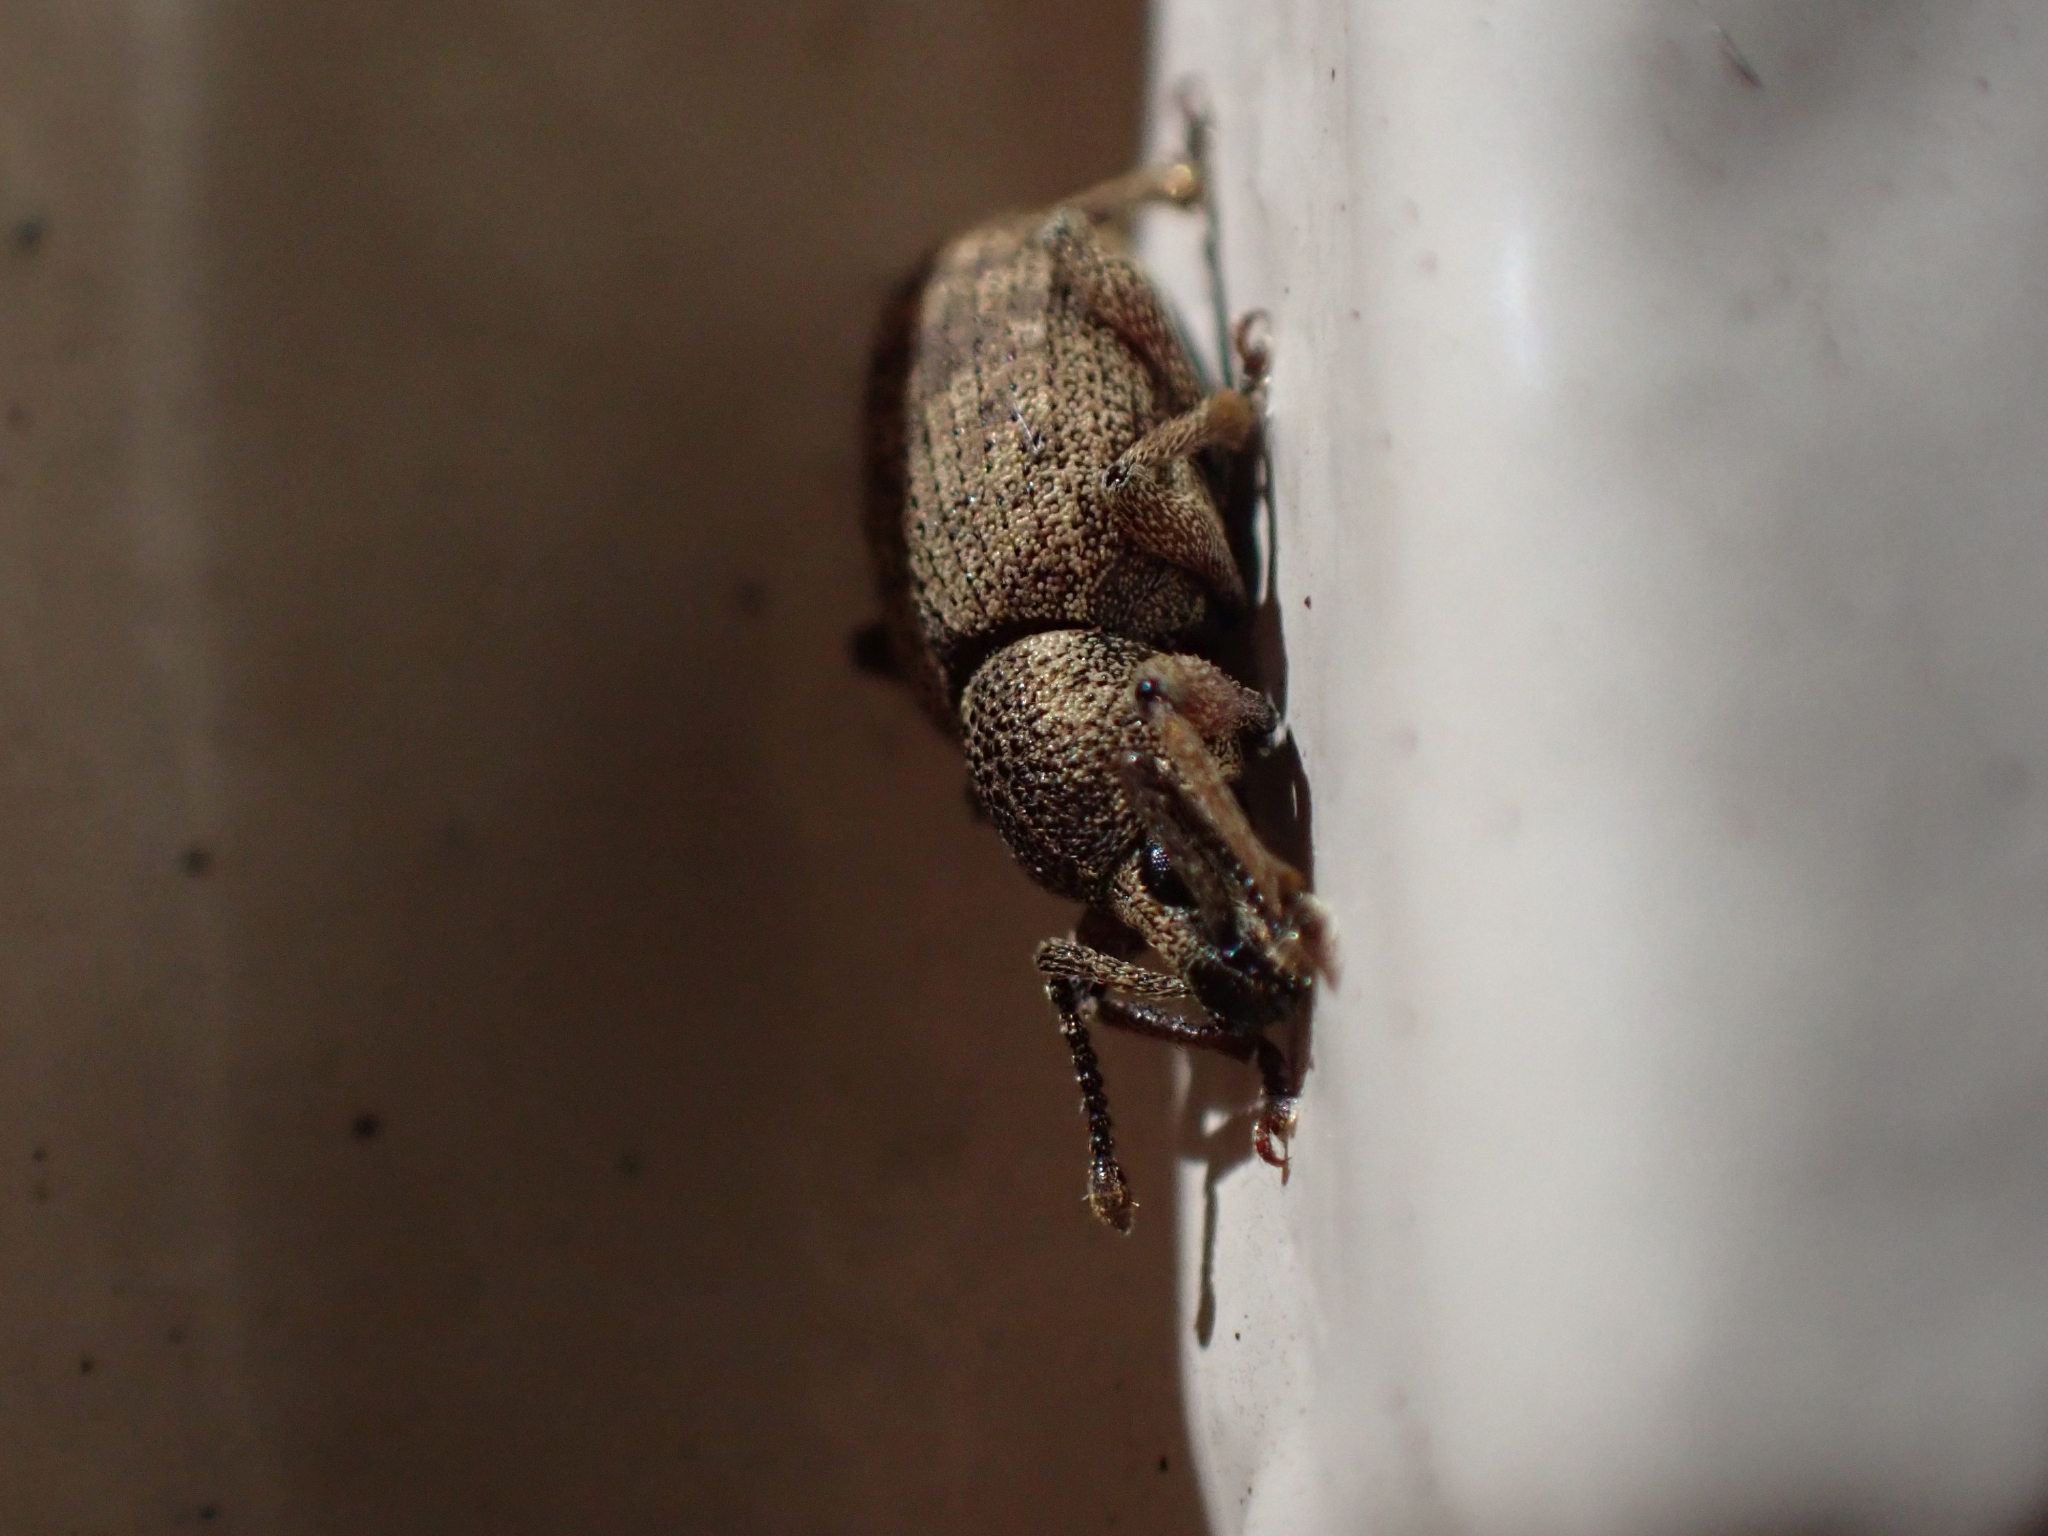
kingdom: Animalia
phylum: Arthropoda
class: Insecta
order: Coleoptera
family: Curculionidae
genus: Otiorhynchus
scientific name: Otiorhynchus singularis
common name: Clay-coloured weevil
